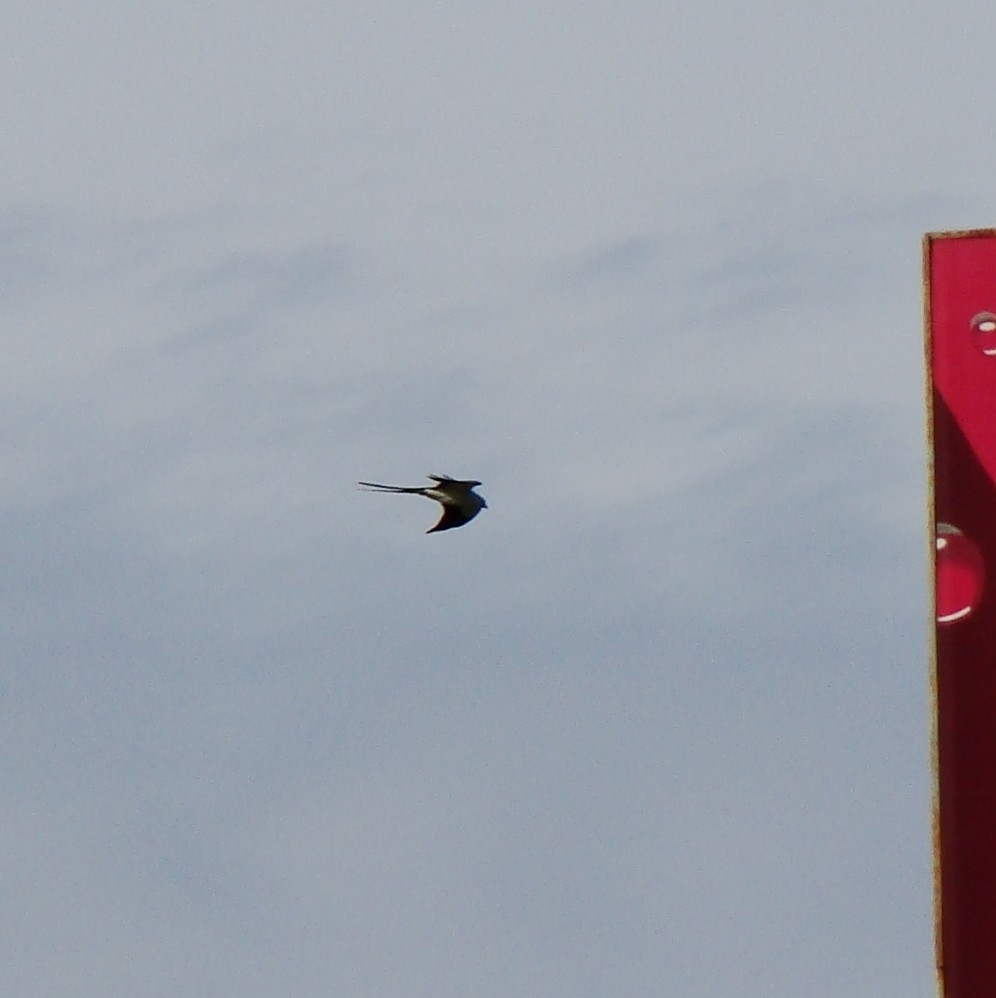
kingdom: Animalia
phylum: Chordata
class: Aves
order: Passeriformes
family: Tyrannidae
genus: Tyrannus
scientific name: Tyrannus savana
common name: Fork-tailed flycatcher
